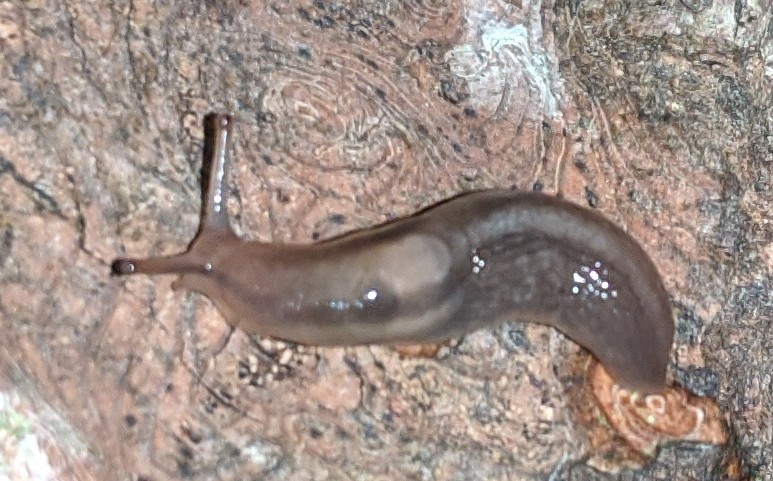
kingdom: Animalia
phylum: Mollusca
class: Gastropoda
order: Stylommatophora
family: Limacidae
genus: Lehmannia
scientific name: Lehmannia marginata
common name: Tree slug
